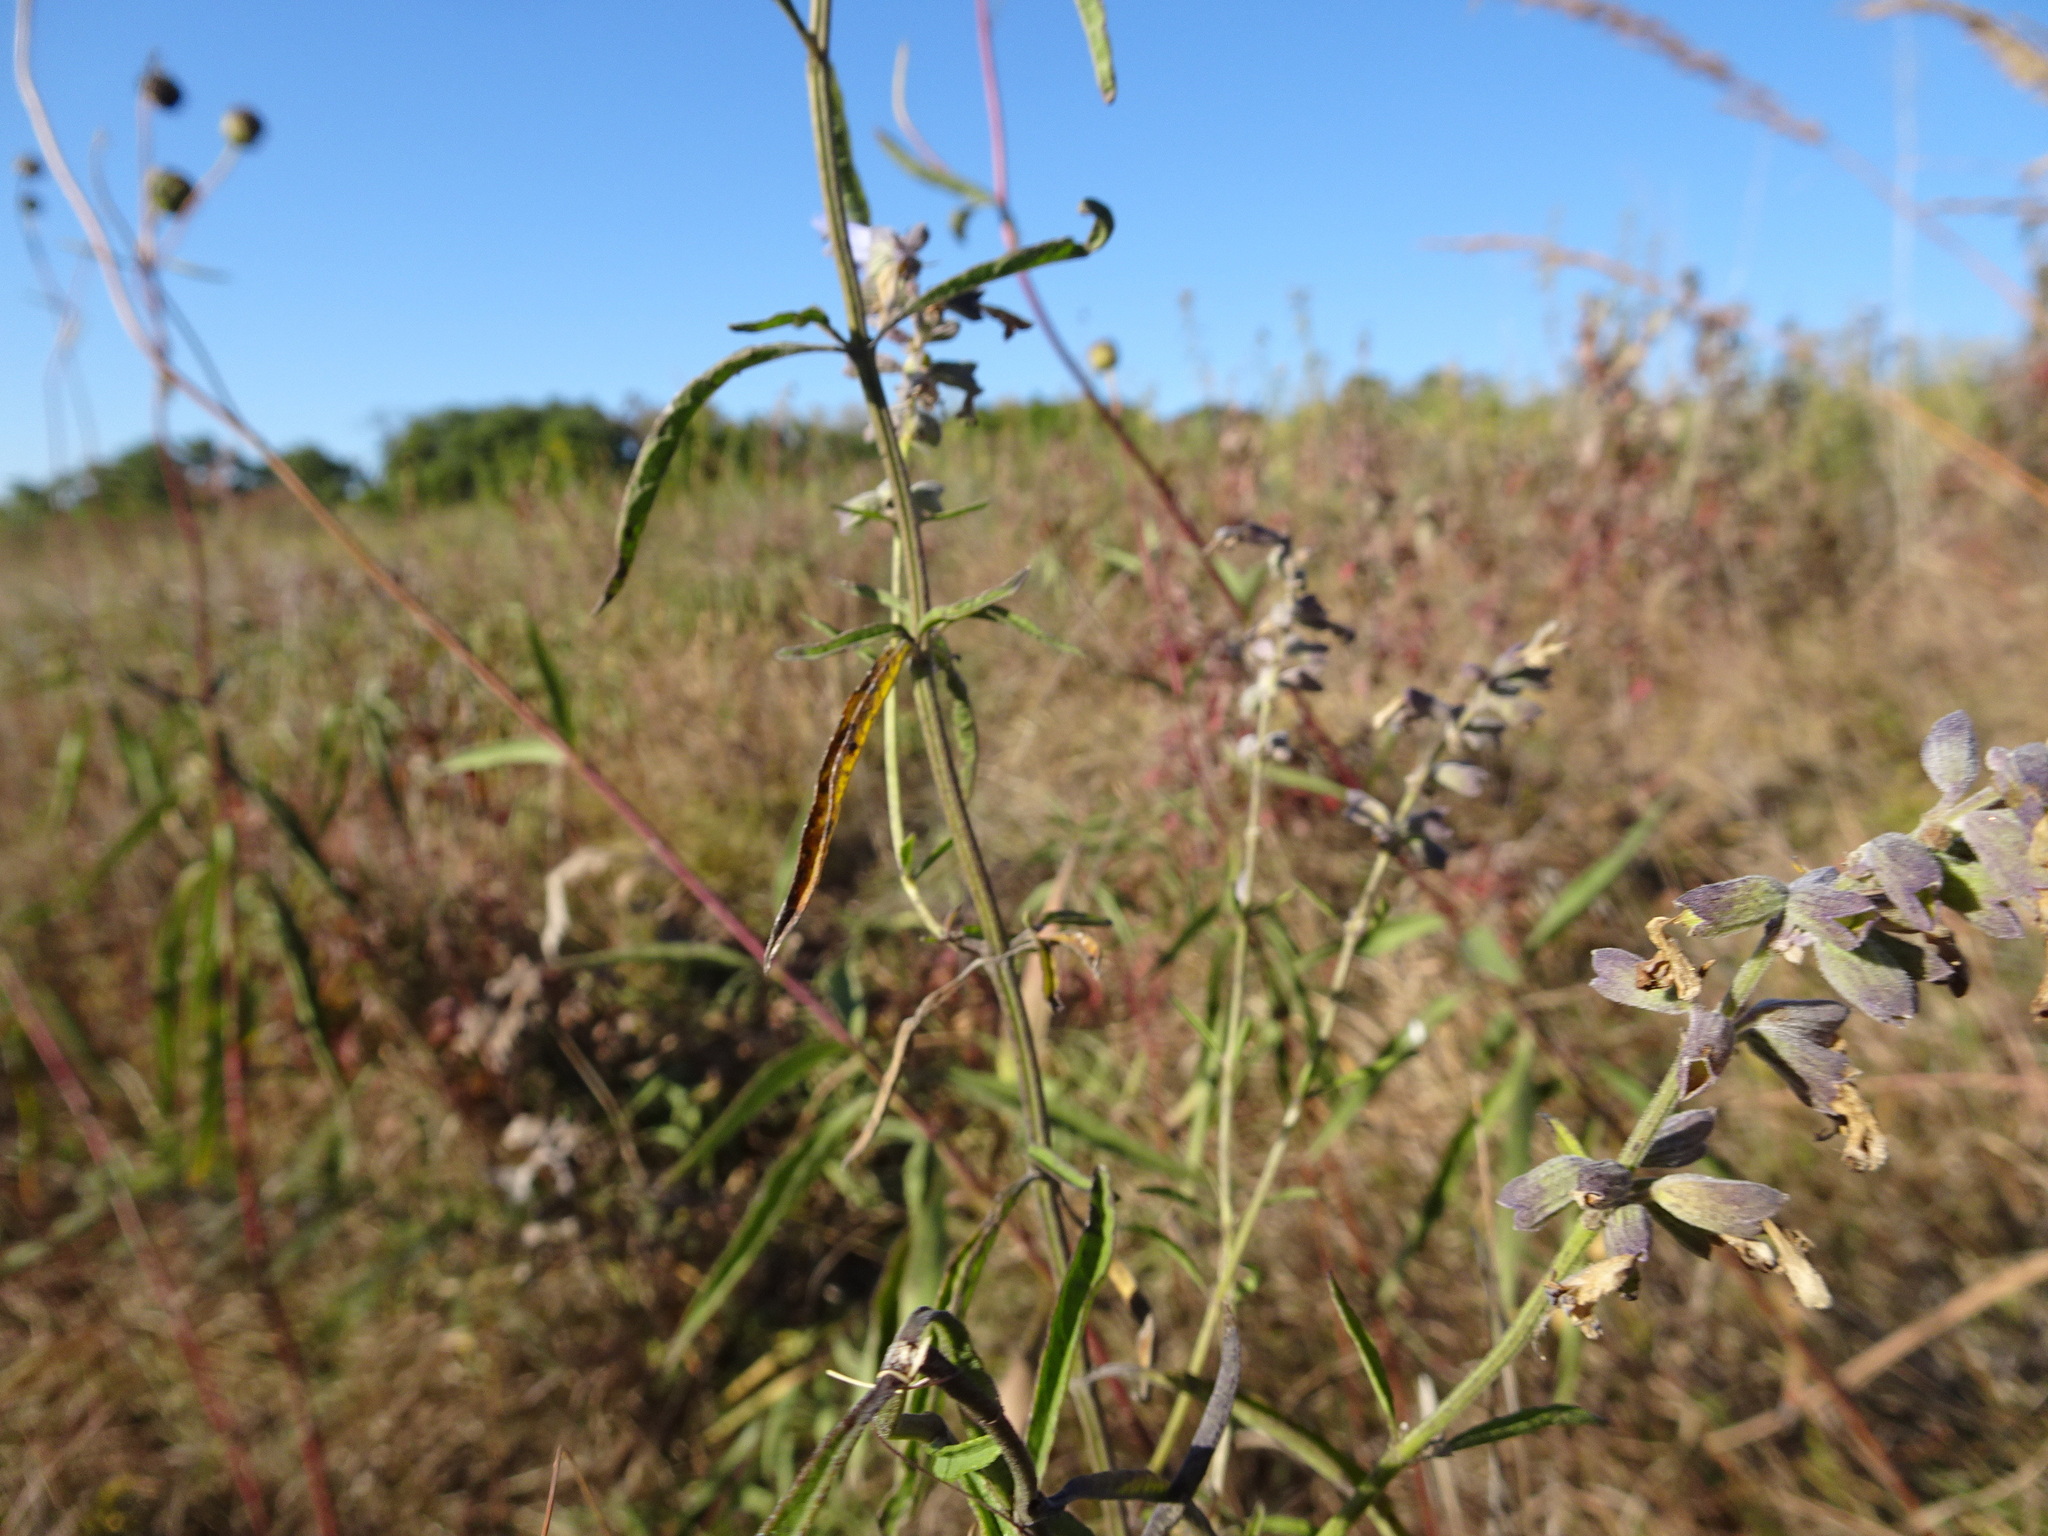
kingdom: Plantae
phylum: Tracheophyta
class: Magnoliopsida
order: Lamiales
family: Lamiaceae
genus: Salvia
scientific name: Salvia azurea
